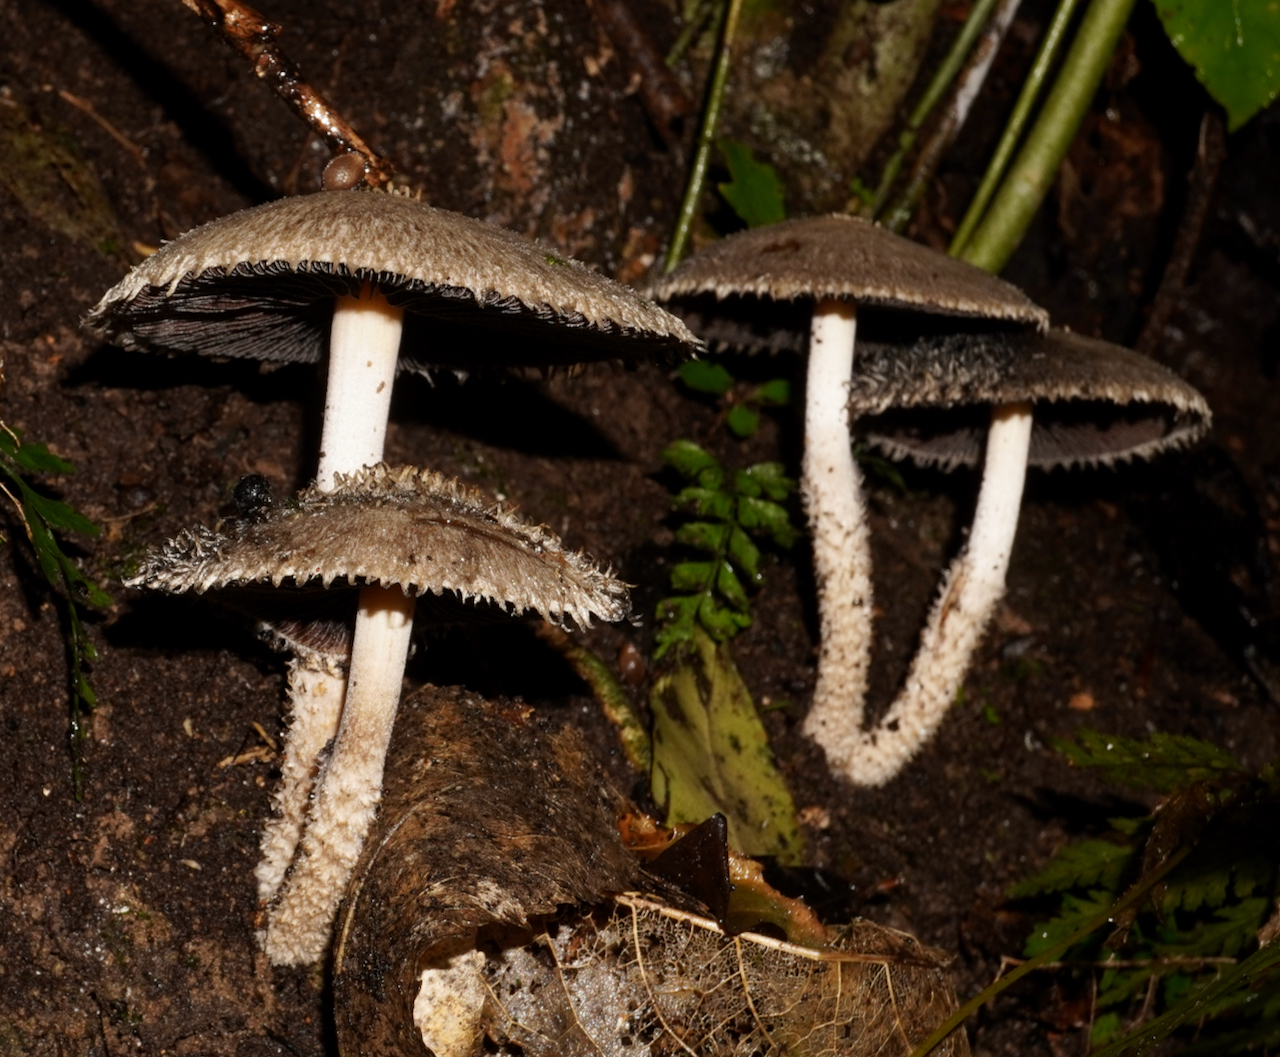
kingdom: Fungi
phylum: Basidiomycota
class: Agaricomycetes
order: Agaricales
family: Psathyrellaceae
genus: Psathyrella
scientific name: Psathyrella asperospora
